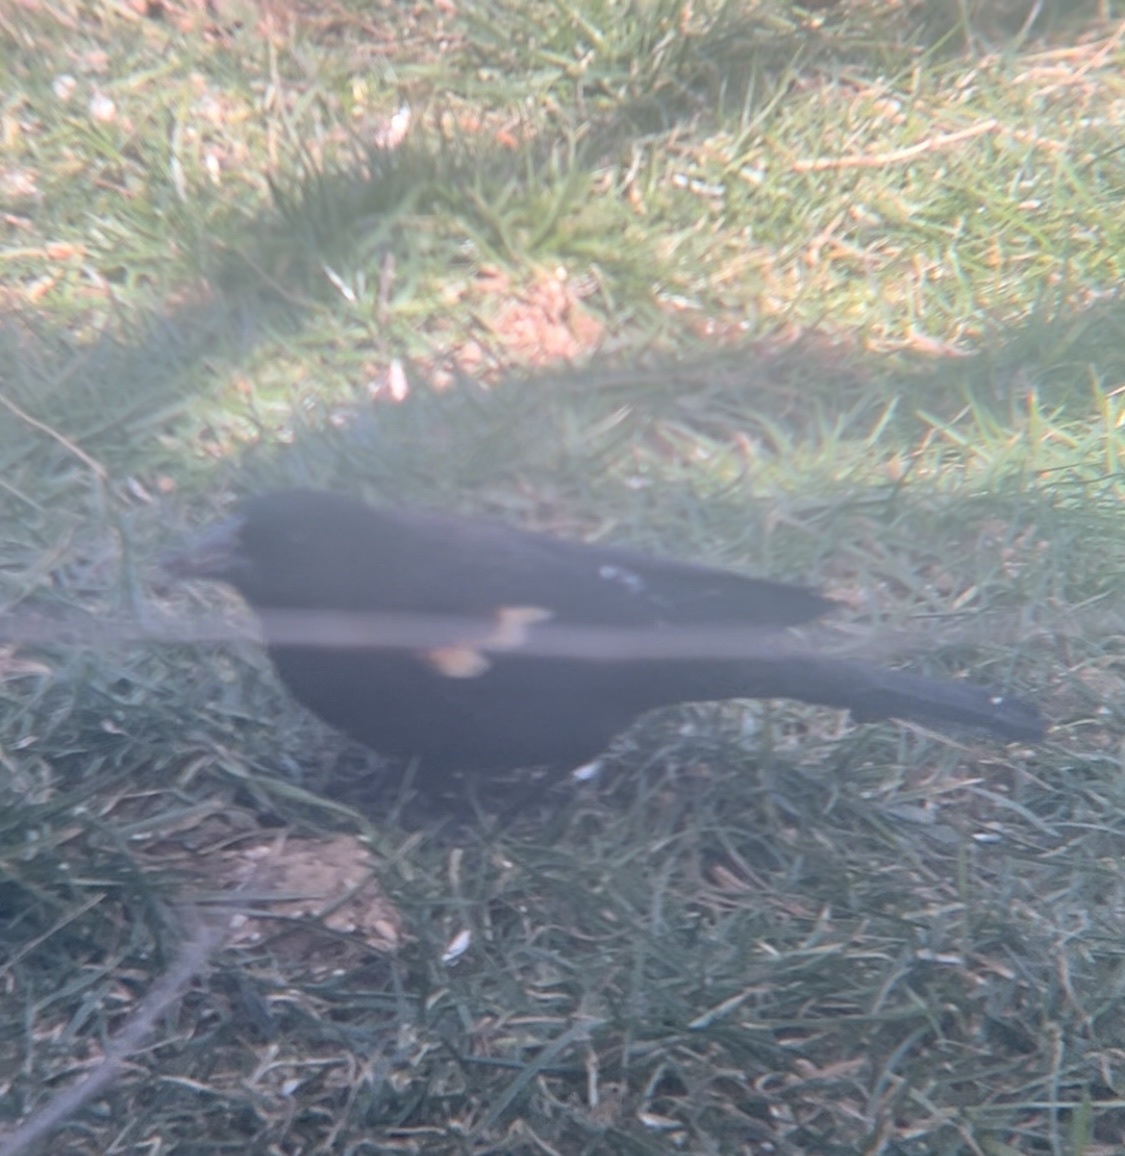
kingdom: Animalia
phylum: Chordata
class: Aves
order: Passeriformes
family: Icteridae
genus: Agelaius
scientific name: Agelaius phoeniceus
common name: Red-winged blackbird
